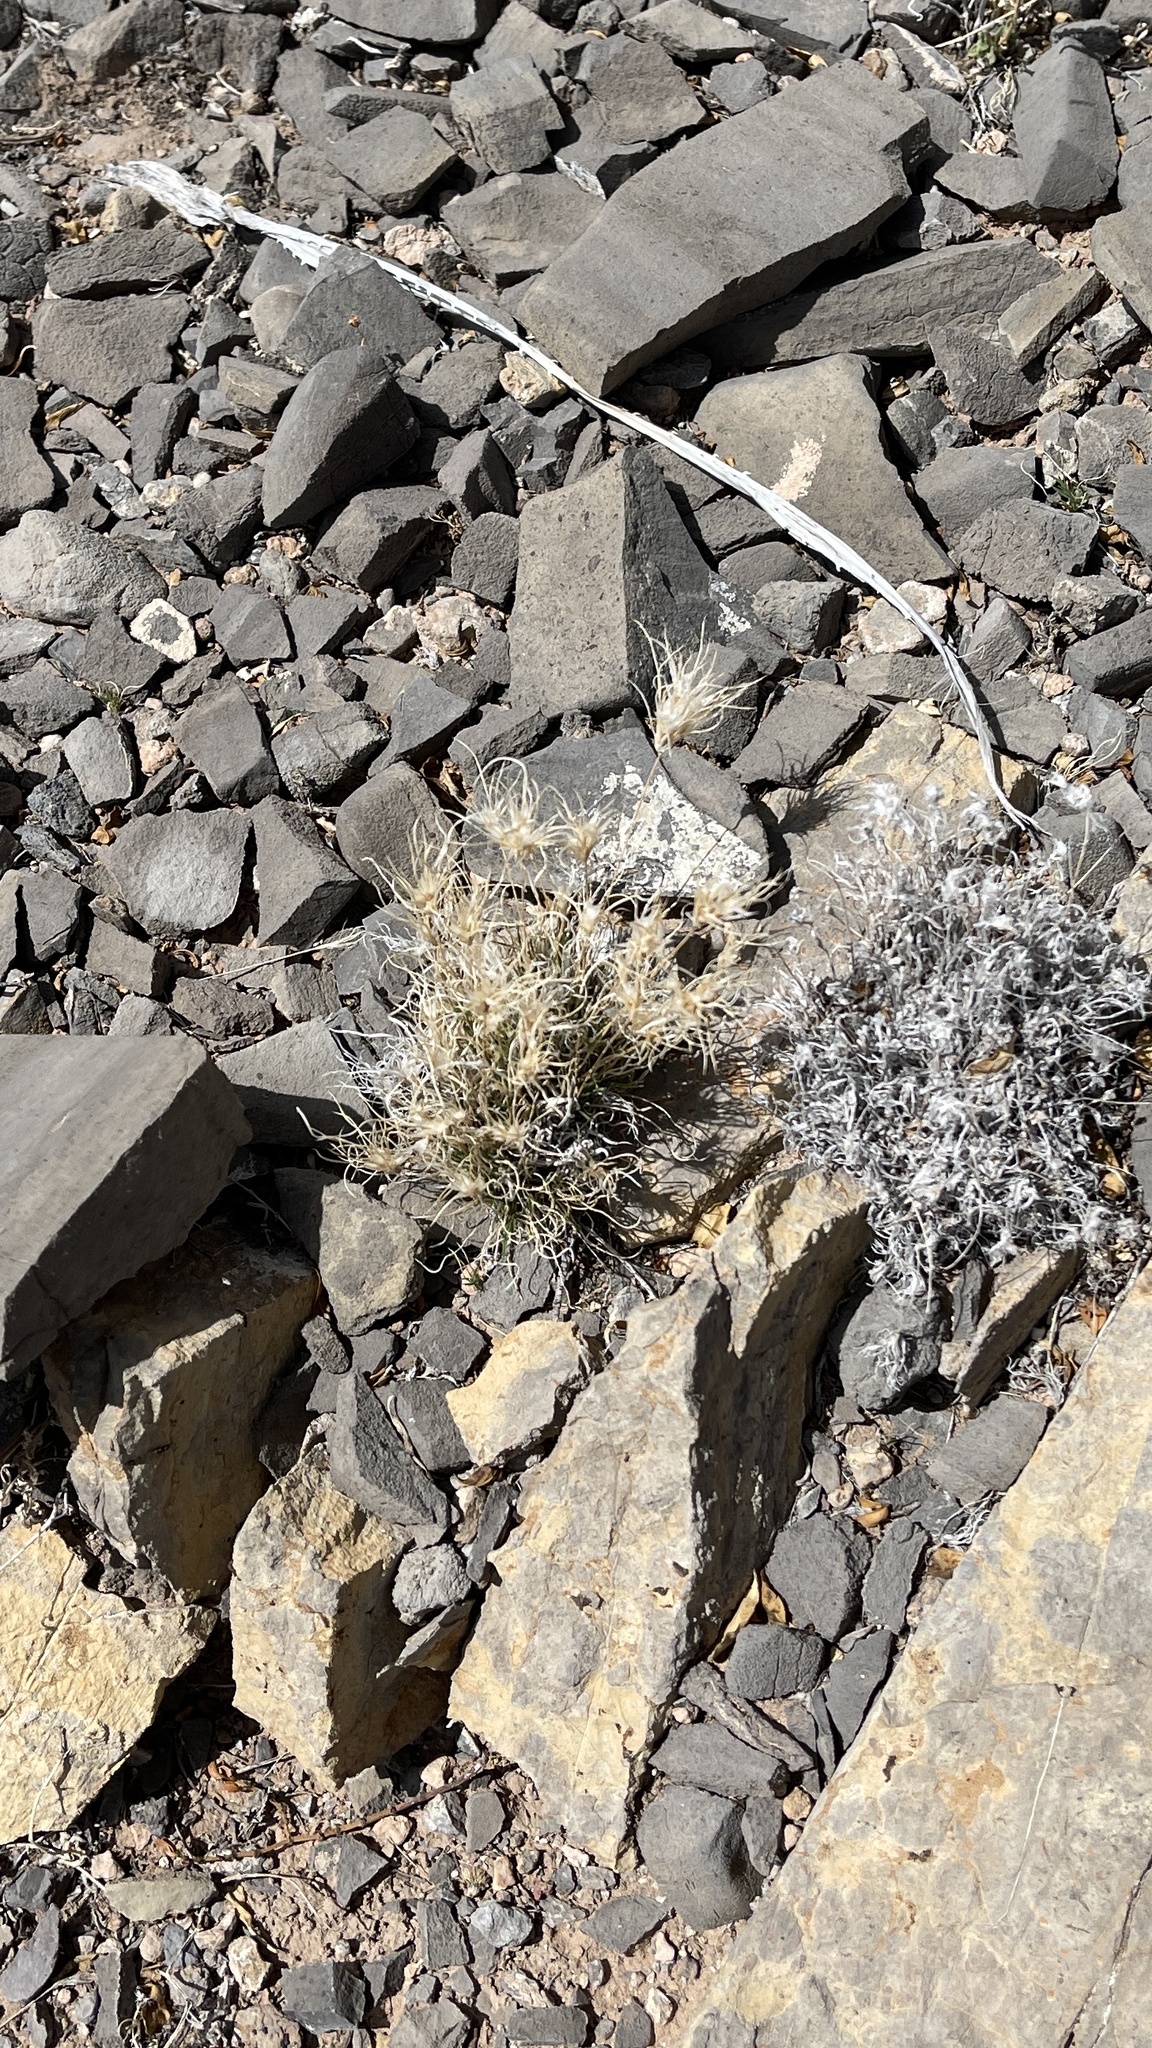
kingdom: Plantae
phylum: Tracheophyta
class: Liliopsida
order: Poales
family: Poaceae
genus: Dasyochloa
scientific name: Dasyochloa pulchella
